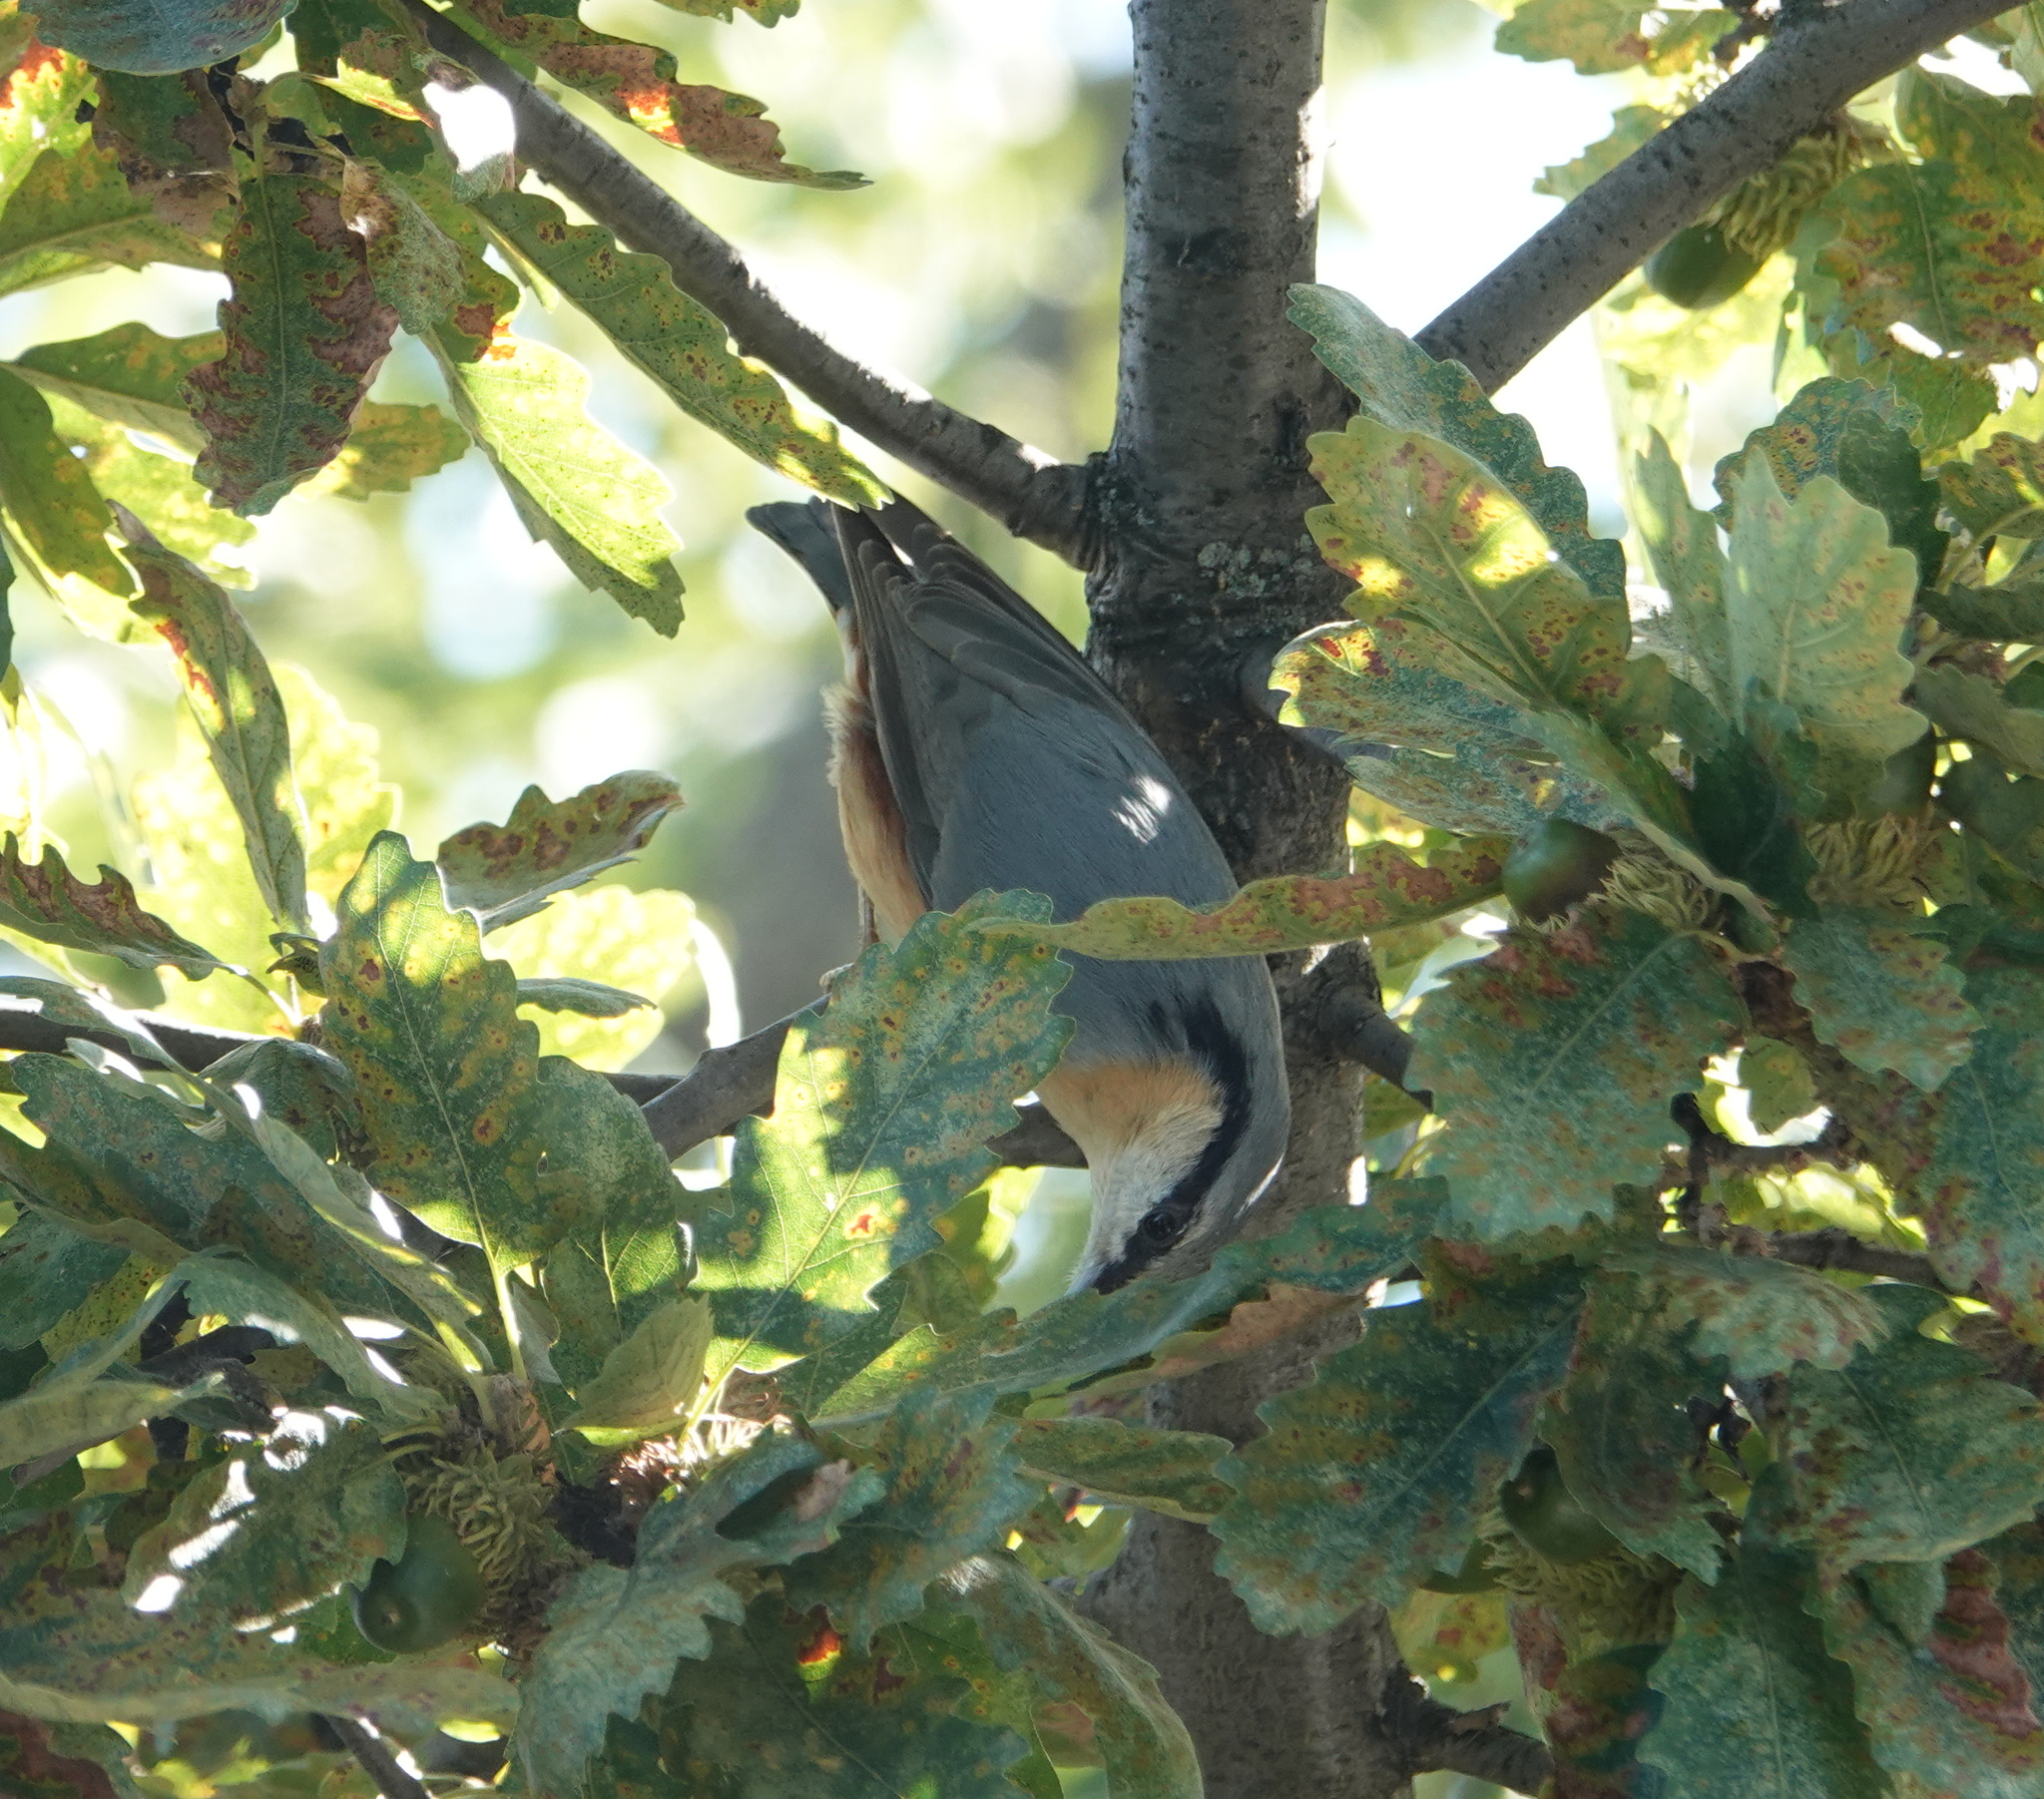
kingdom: Animalia
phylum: Chordata
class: Aves
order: Passeriformes
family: Sittidae
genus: Sitta
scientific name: Sitta europaea
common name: Eurasian nuthatch
